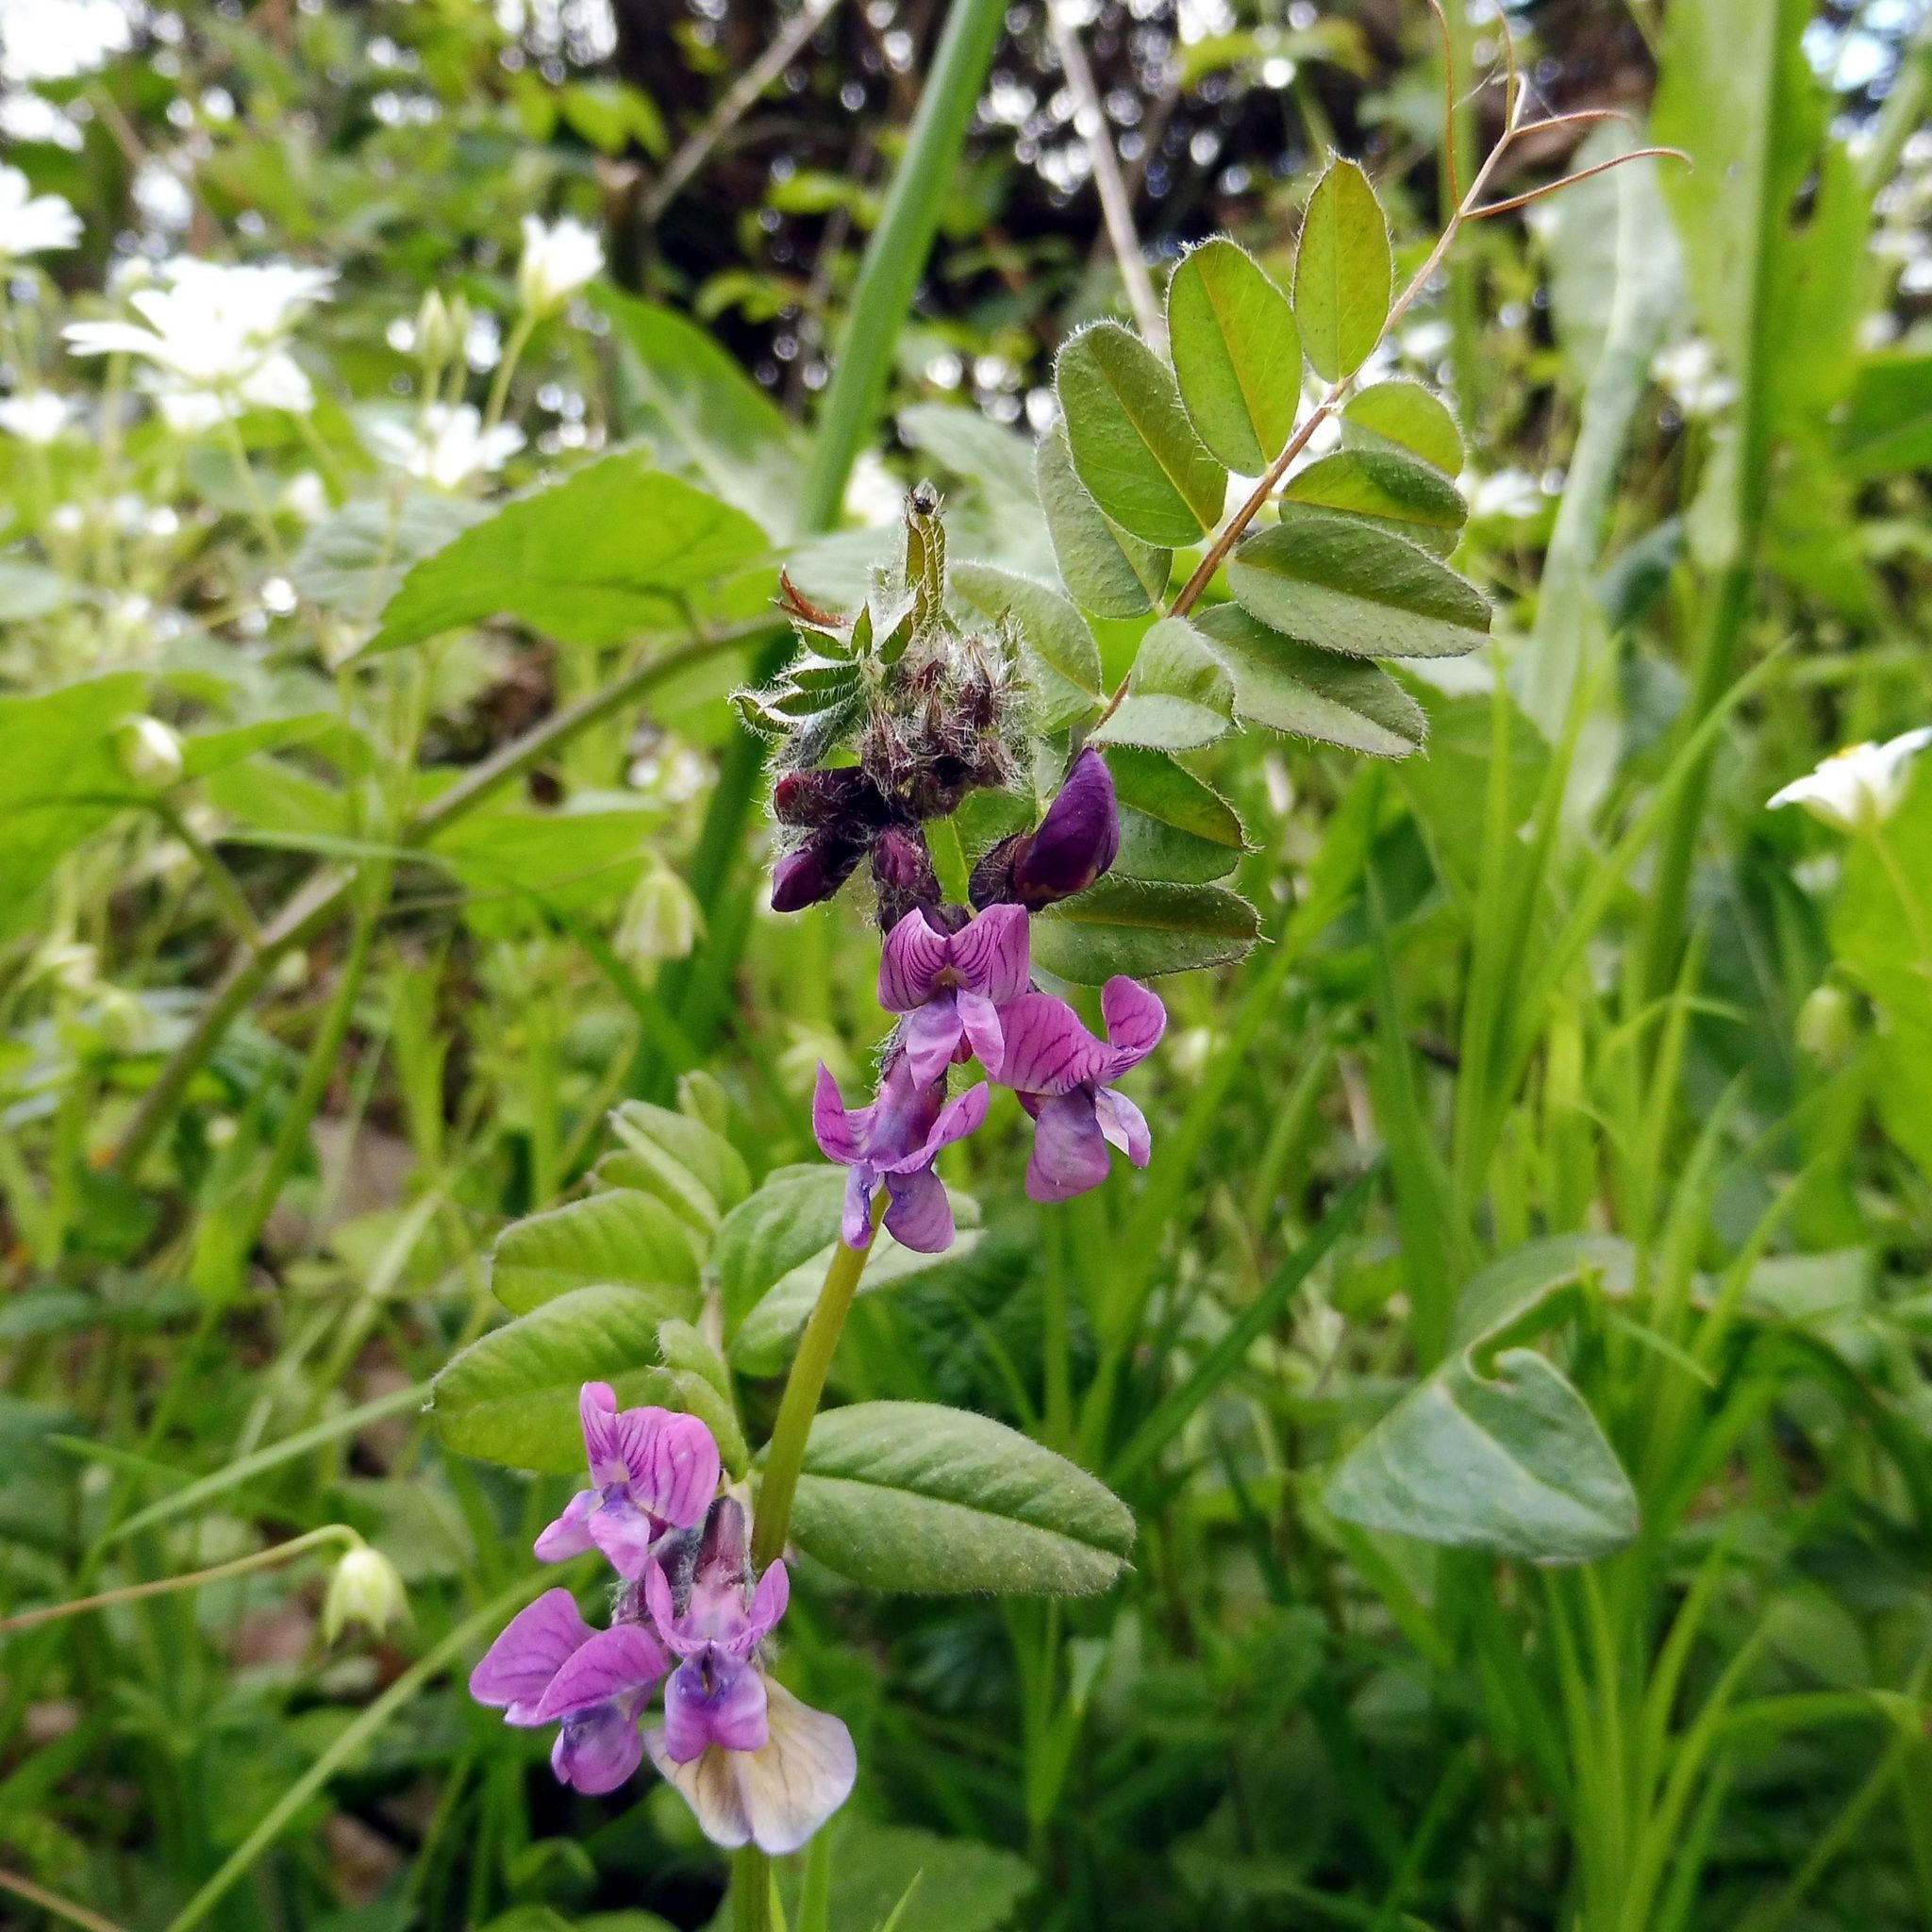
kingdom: Plantae
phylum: Tracheophyta
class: Magnoliopsida
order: Fabales
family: Fabaceae
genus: Vicia
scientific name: Vicia sepium
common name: Bush vetch
